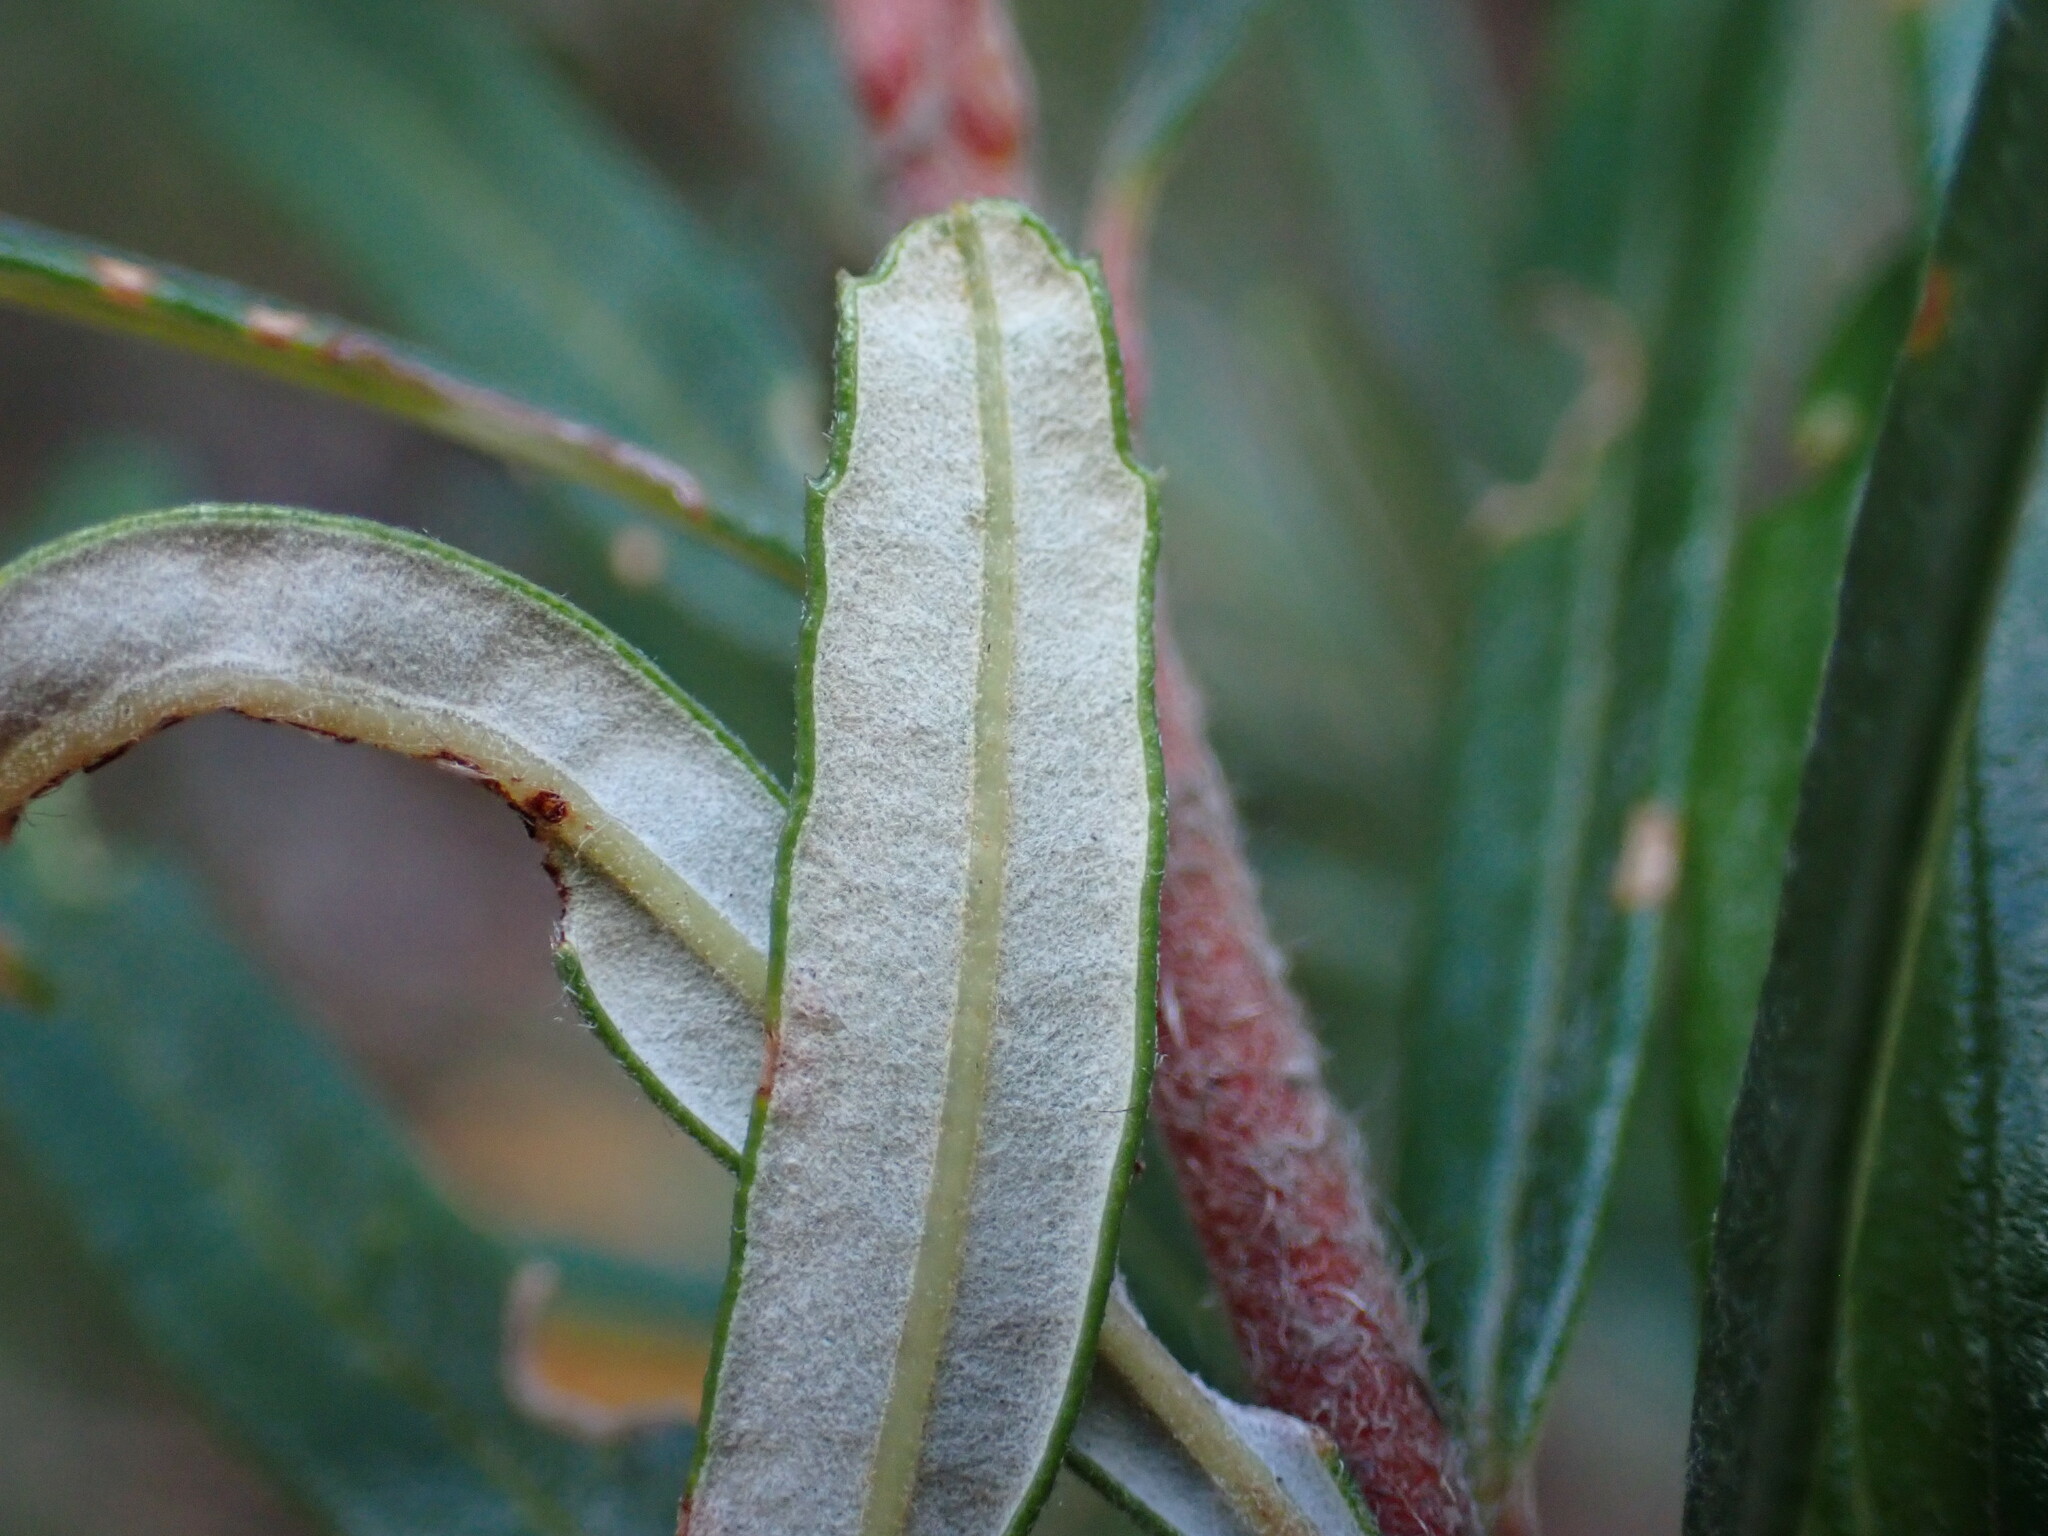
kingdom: Plantae
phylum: Tracheophyta
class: Magnoliopsida
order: Proteales
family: Proteaceae
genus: Banksia
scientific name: Banksia neoanglica
